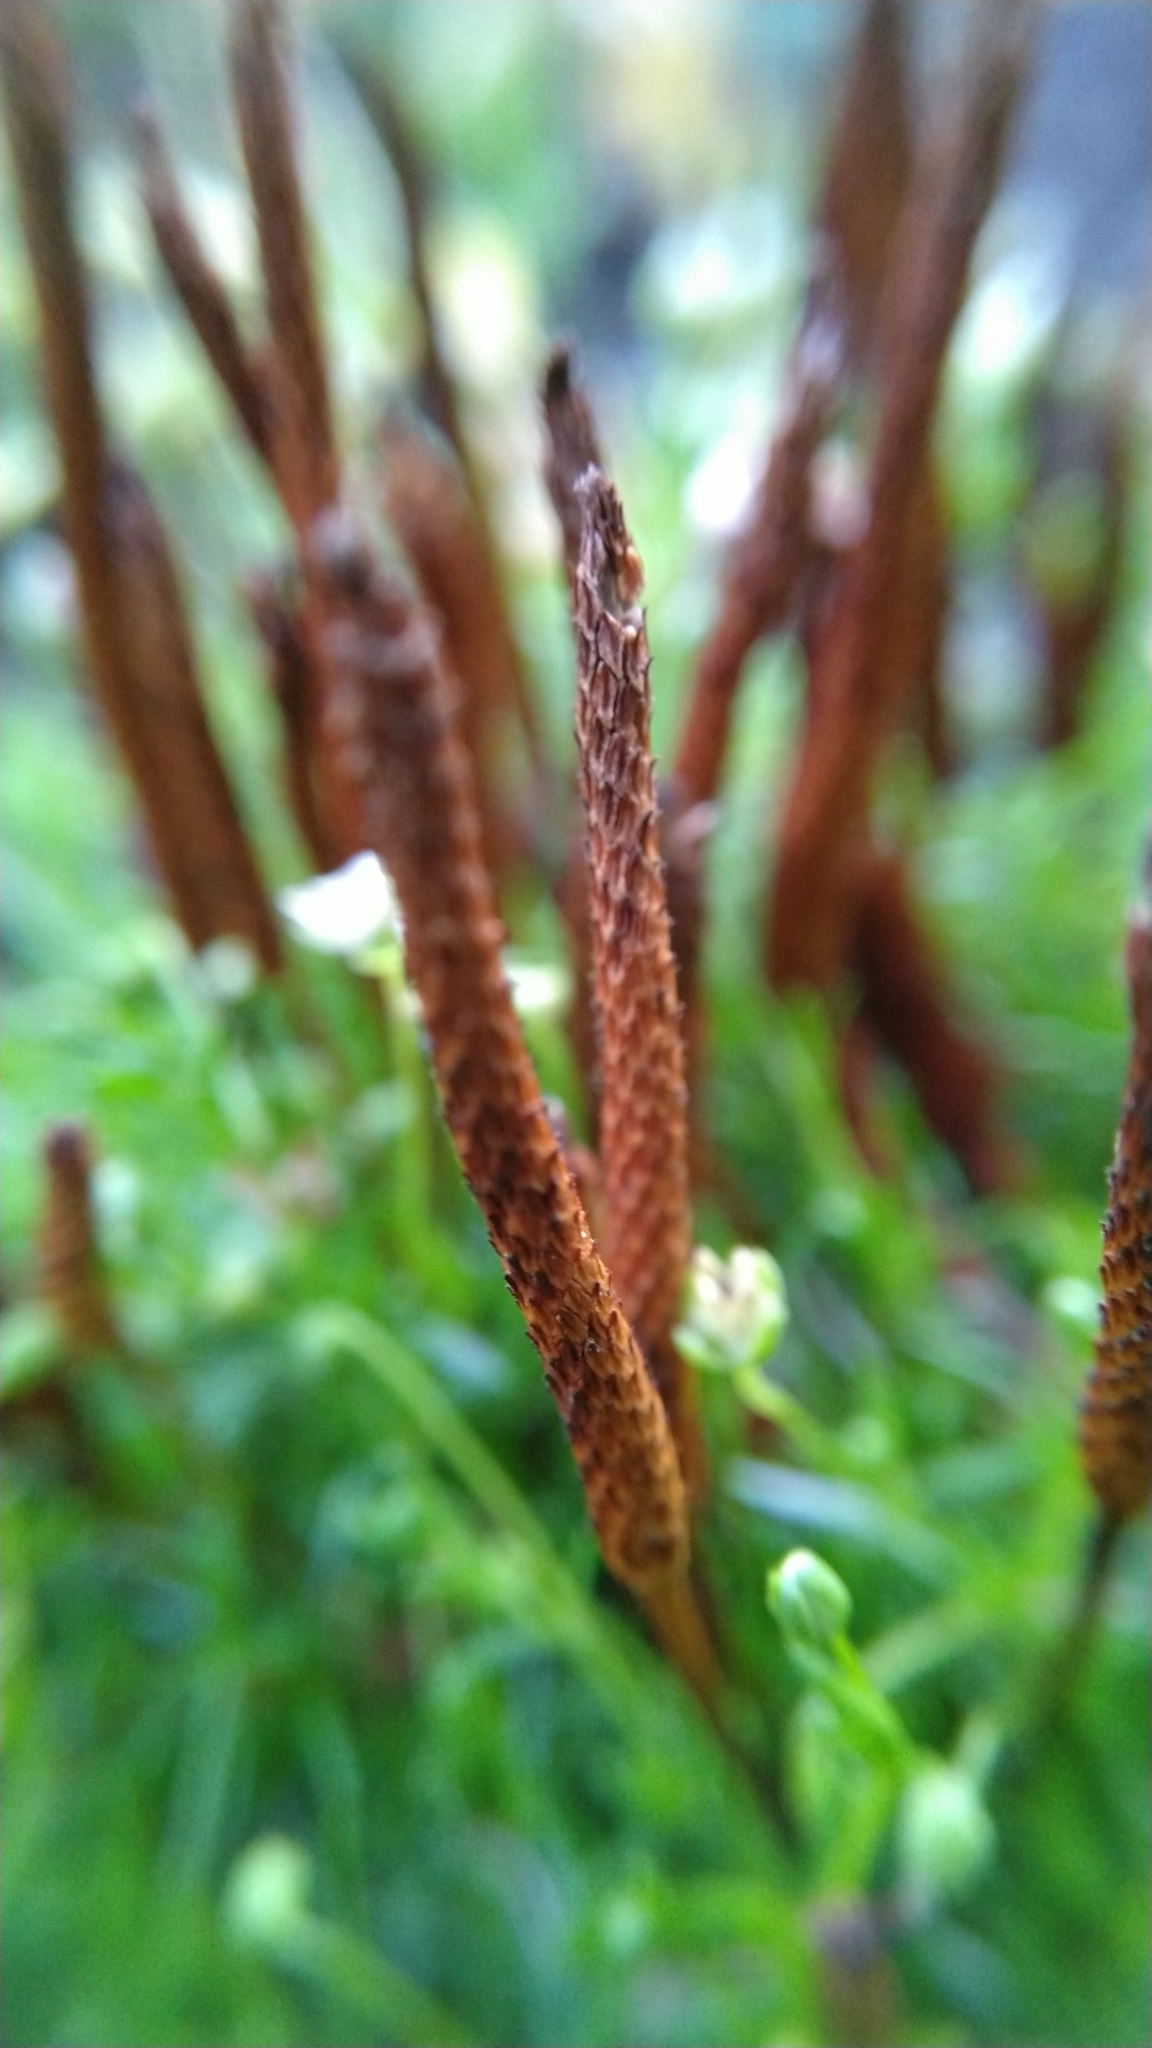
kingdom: Plantae
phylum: Tracheophyta
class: Magnoliopsida
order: Ranunculales
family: Ranunculaceae
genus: Myosurus
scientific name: Myosurus minimus
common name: Mousetail
